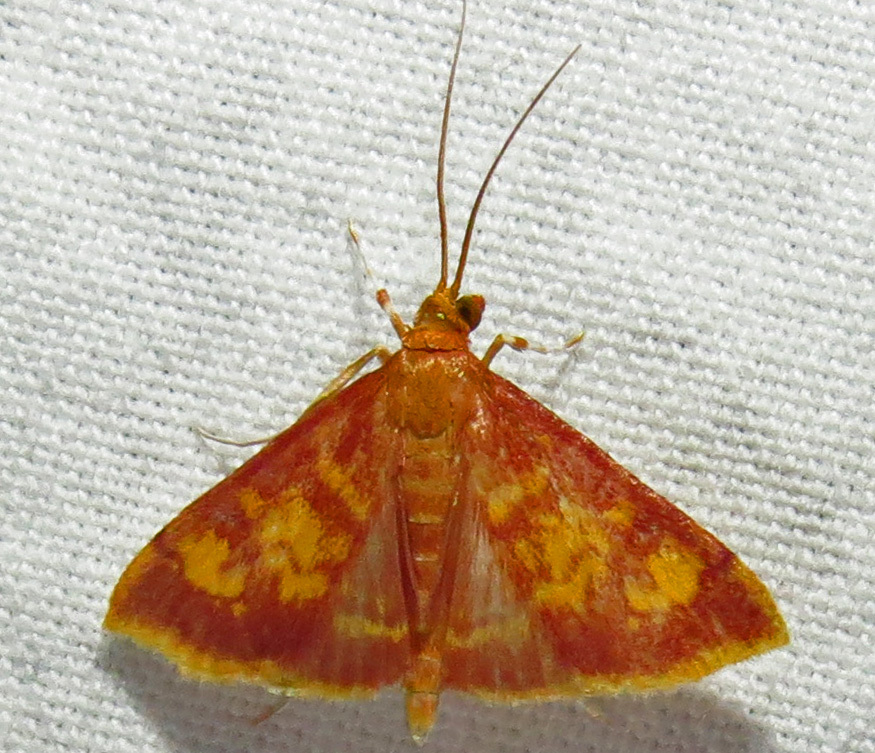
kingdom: Animalia
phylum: Arthropoda
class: Insecta
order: Lepidoptera
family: Crambidae
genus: Pyrausta
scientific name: Pyrausta acrionalis
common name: Mint-loving pyrausta moth
